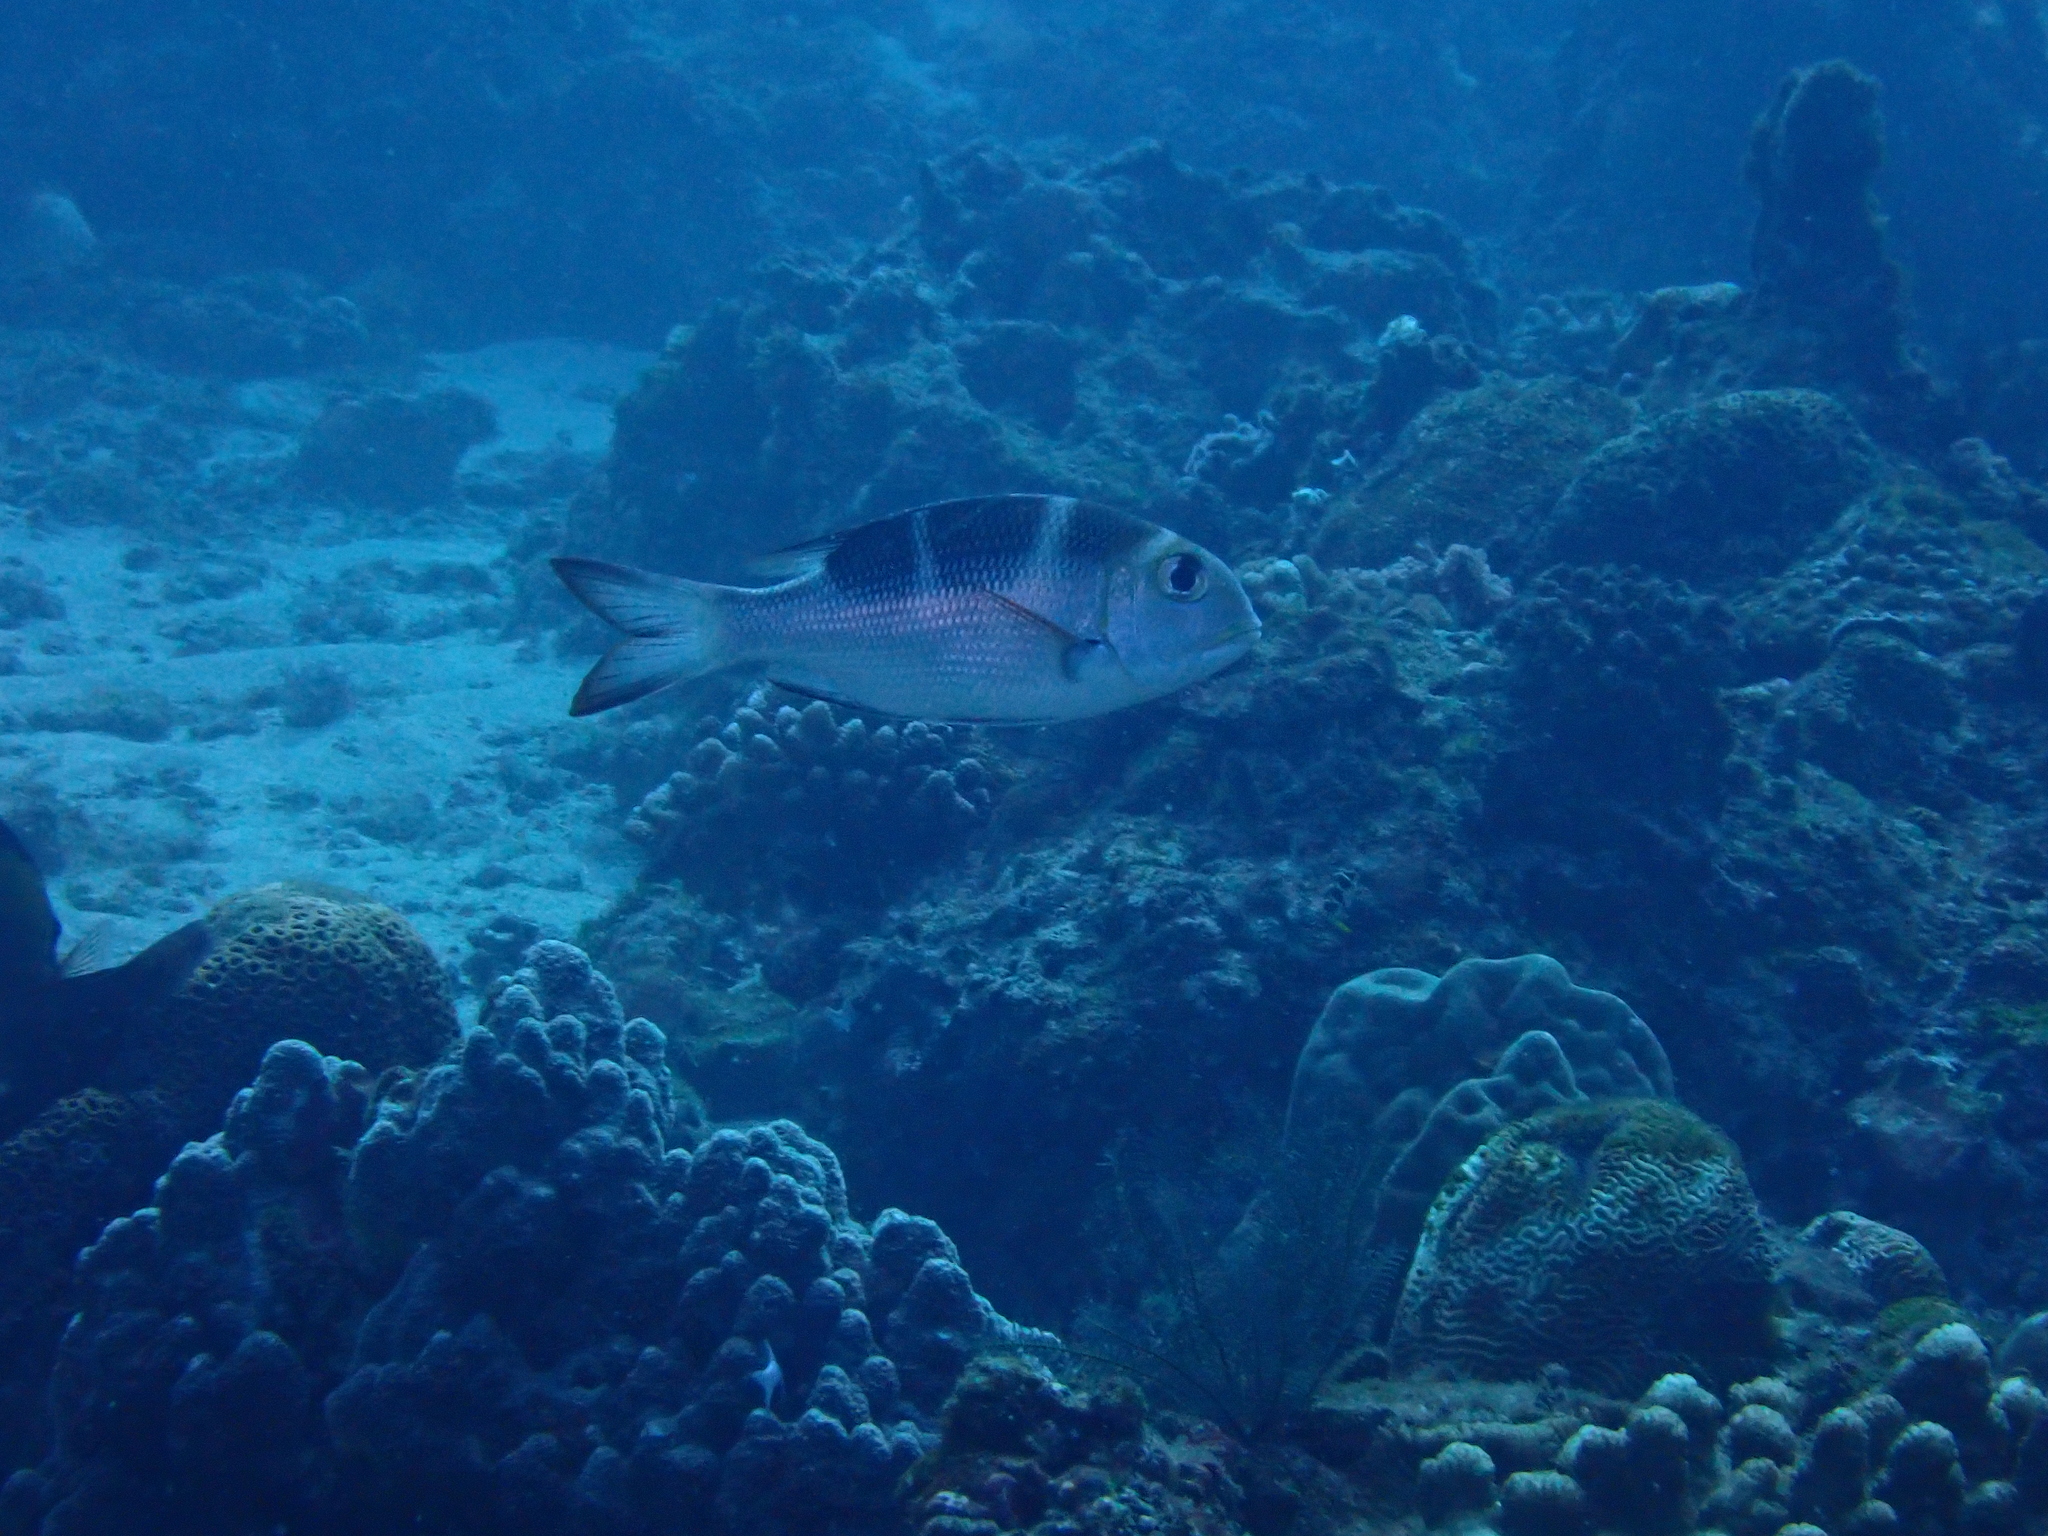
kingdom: Animalia
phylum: Chordata
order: Perciformes
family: Lethrinidae
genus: Monotaxis
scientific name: Monotaxis grandoculis
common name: Bigeye emperor
